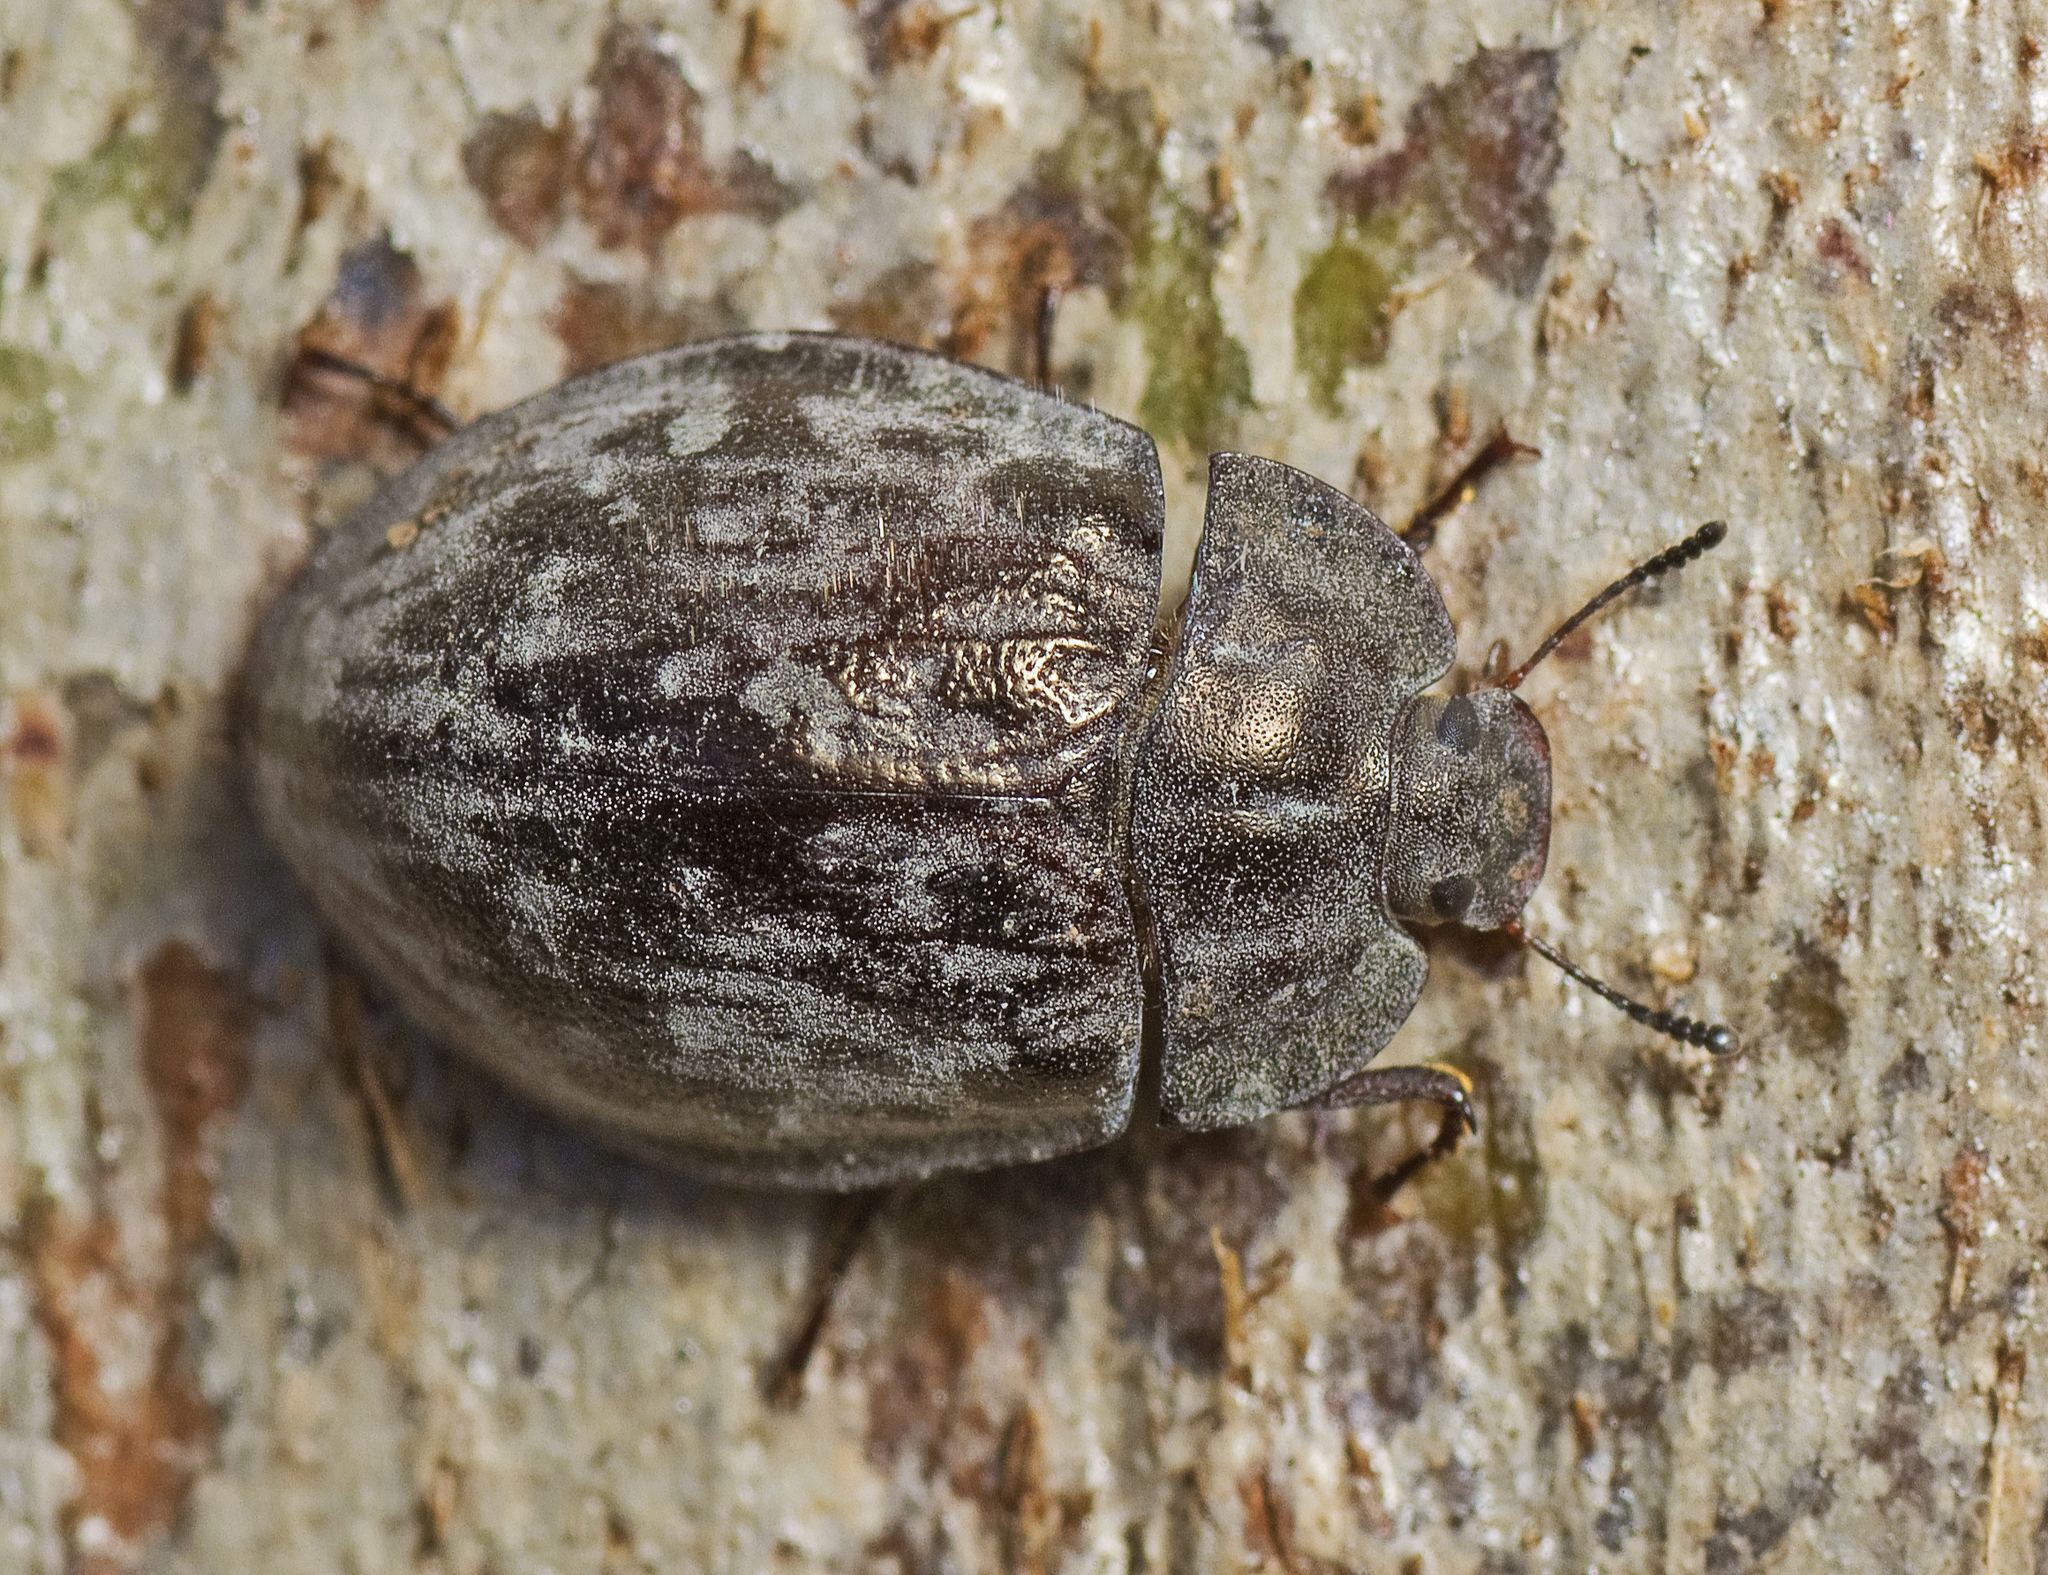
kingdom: Animalia
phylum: Arthropoda
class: Insecta
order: Coleoptera
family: Tenebrionidae
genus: Ospidus
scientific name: Ospidus
